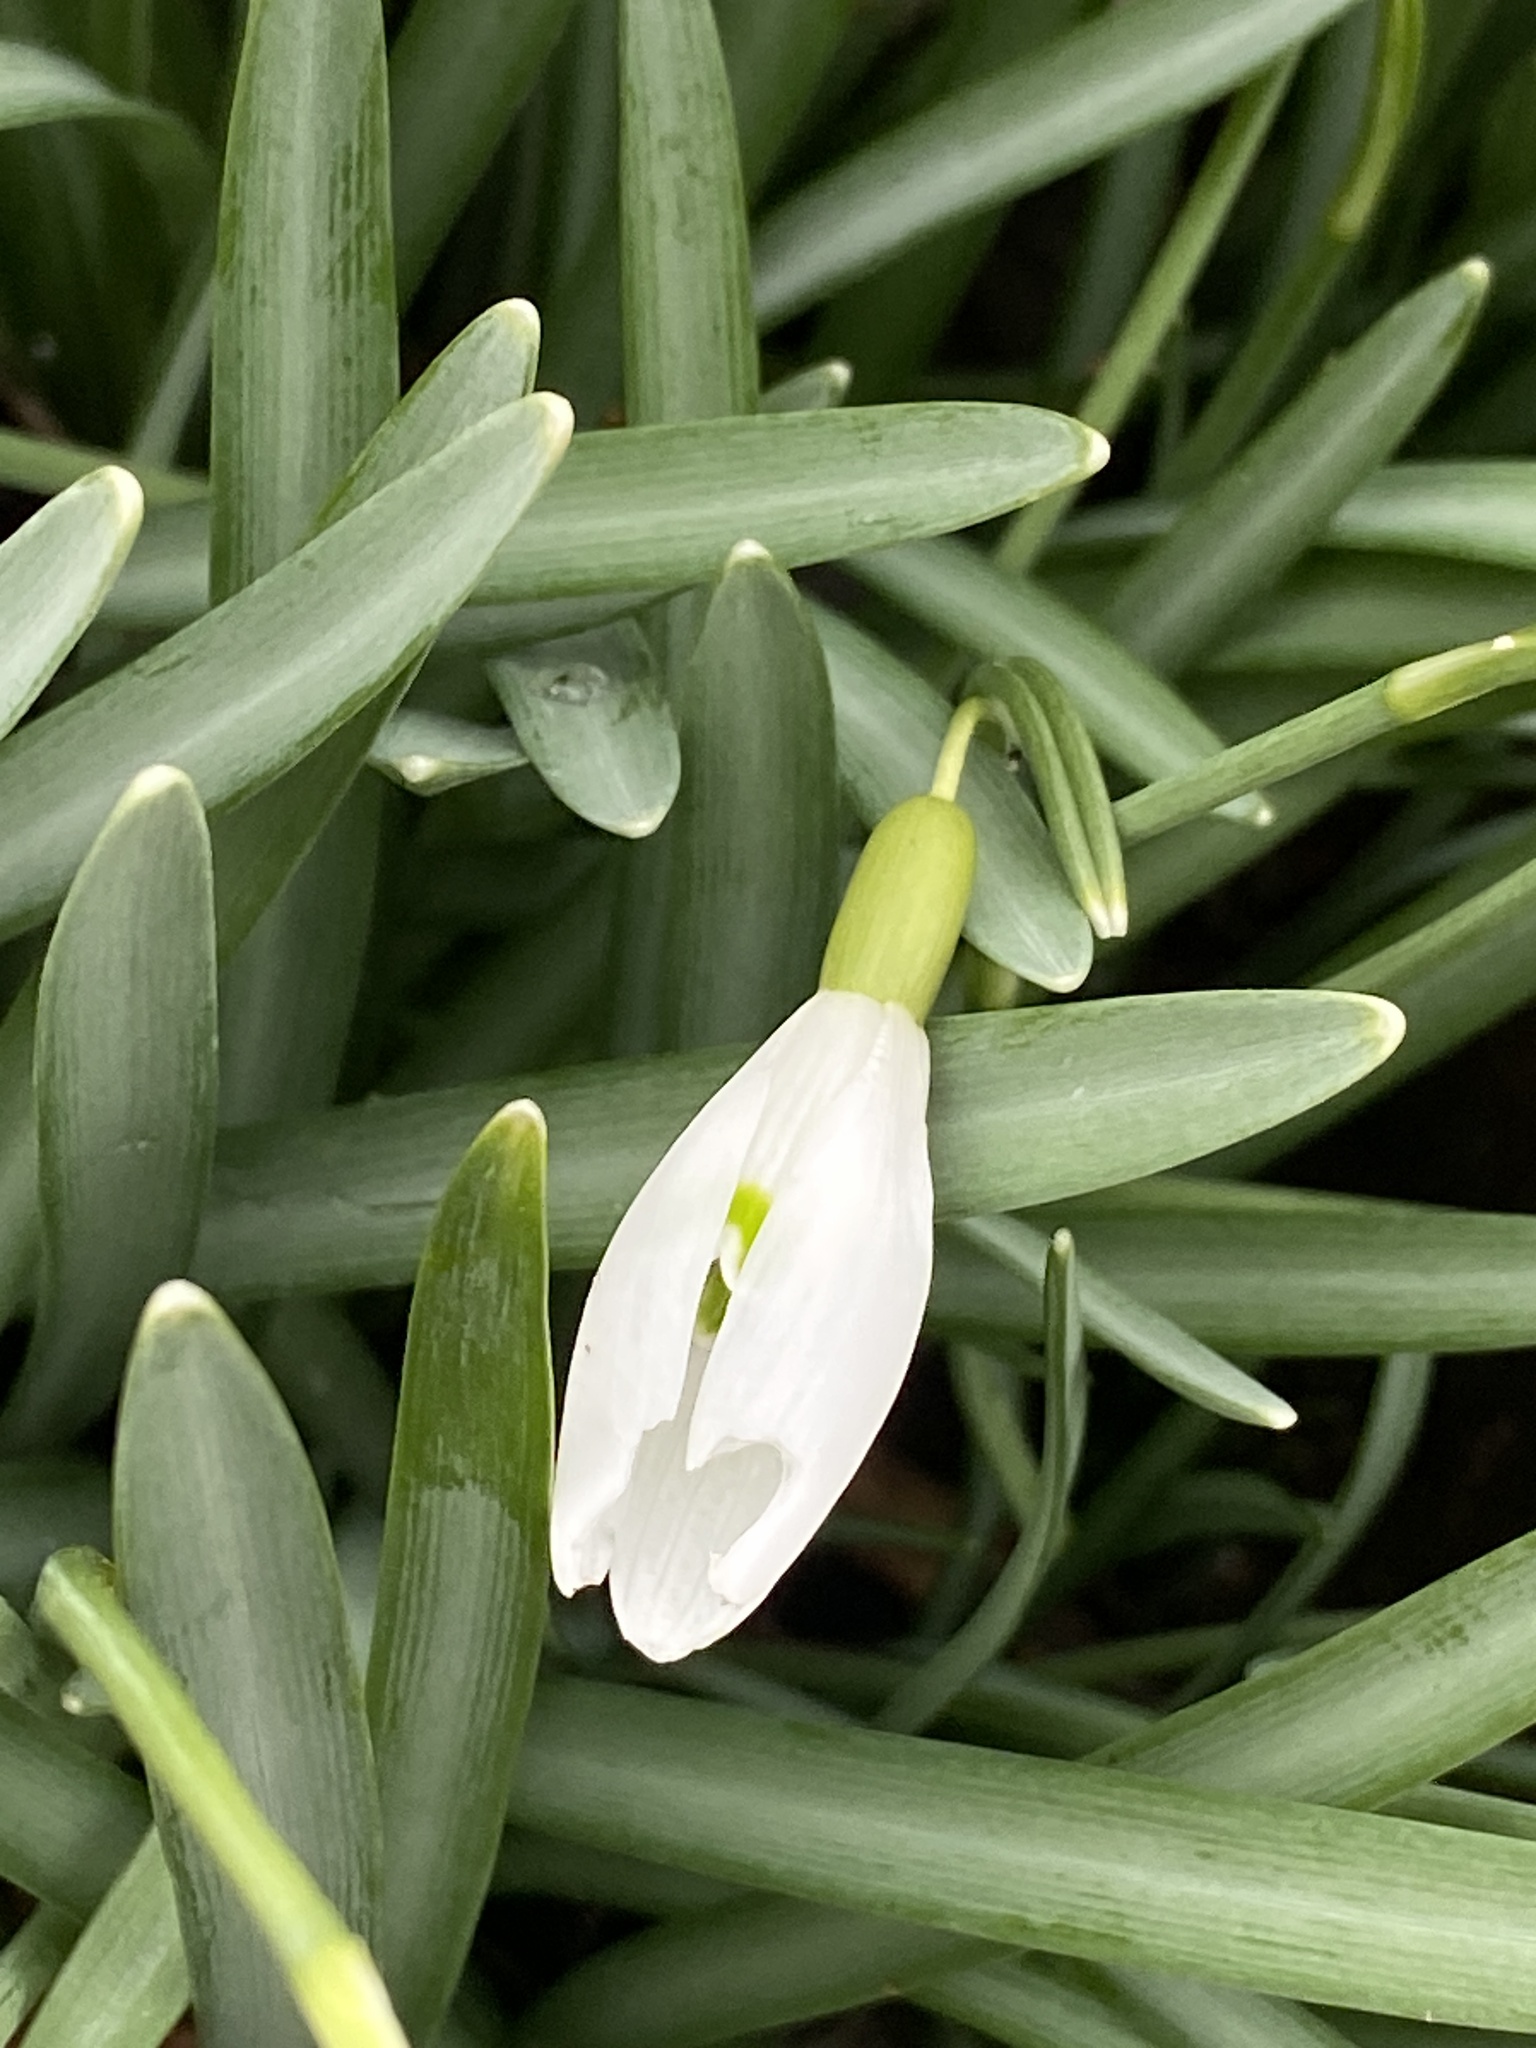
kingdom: Plantae
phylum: Tracheophyta
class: Liliopsida
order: Asparagales
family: Amaryllidaceae
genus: Galanthus
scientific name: Galanthus nivalis
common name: Snowdrop
